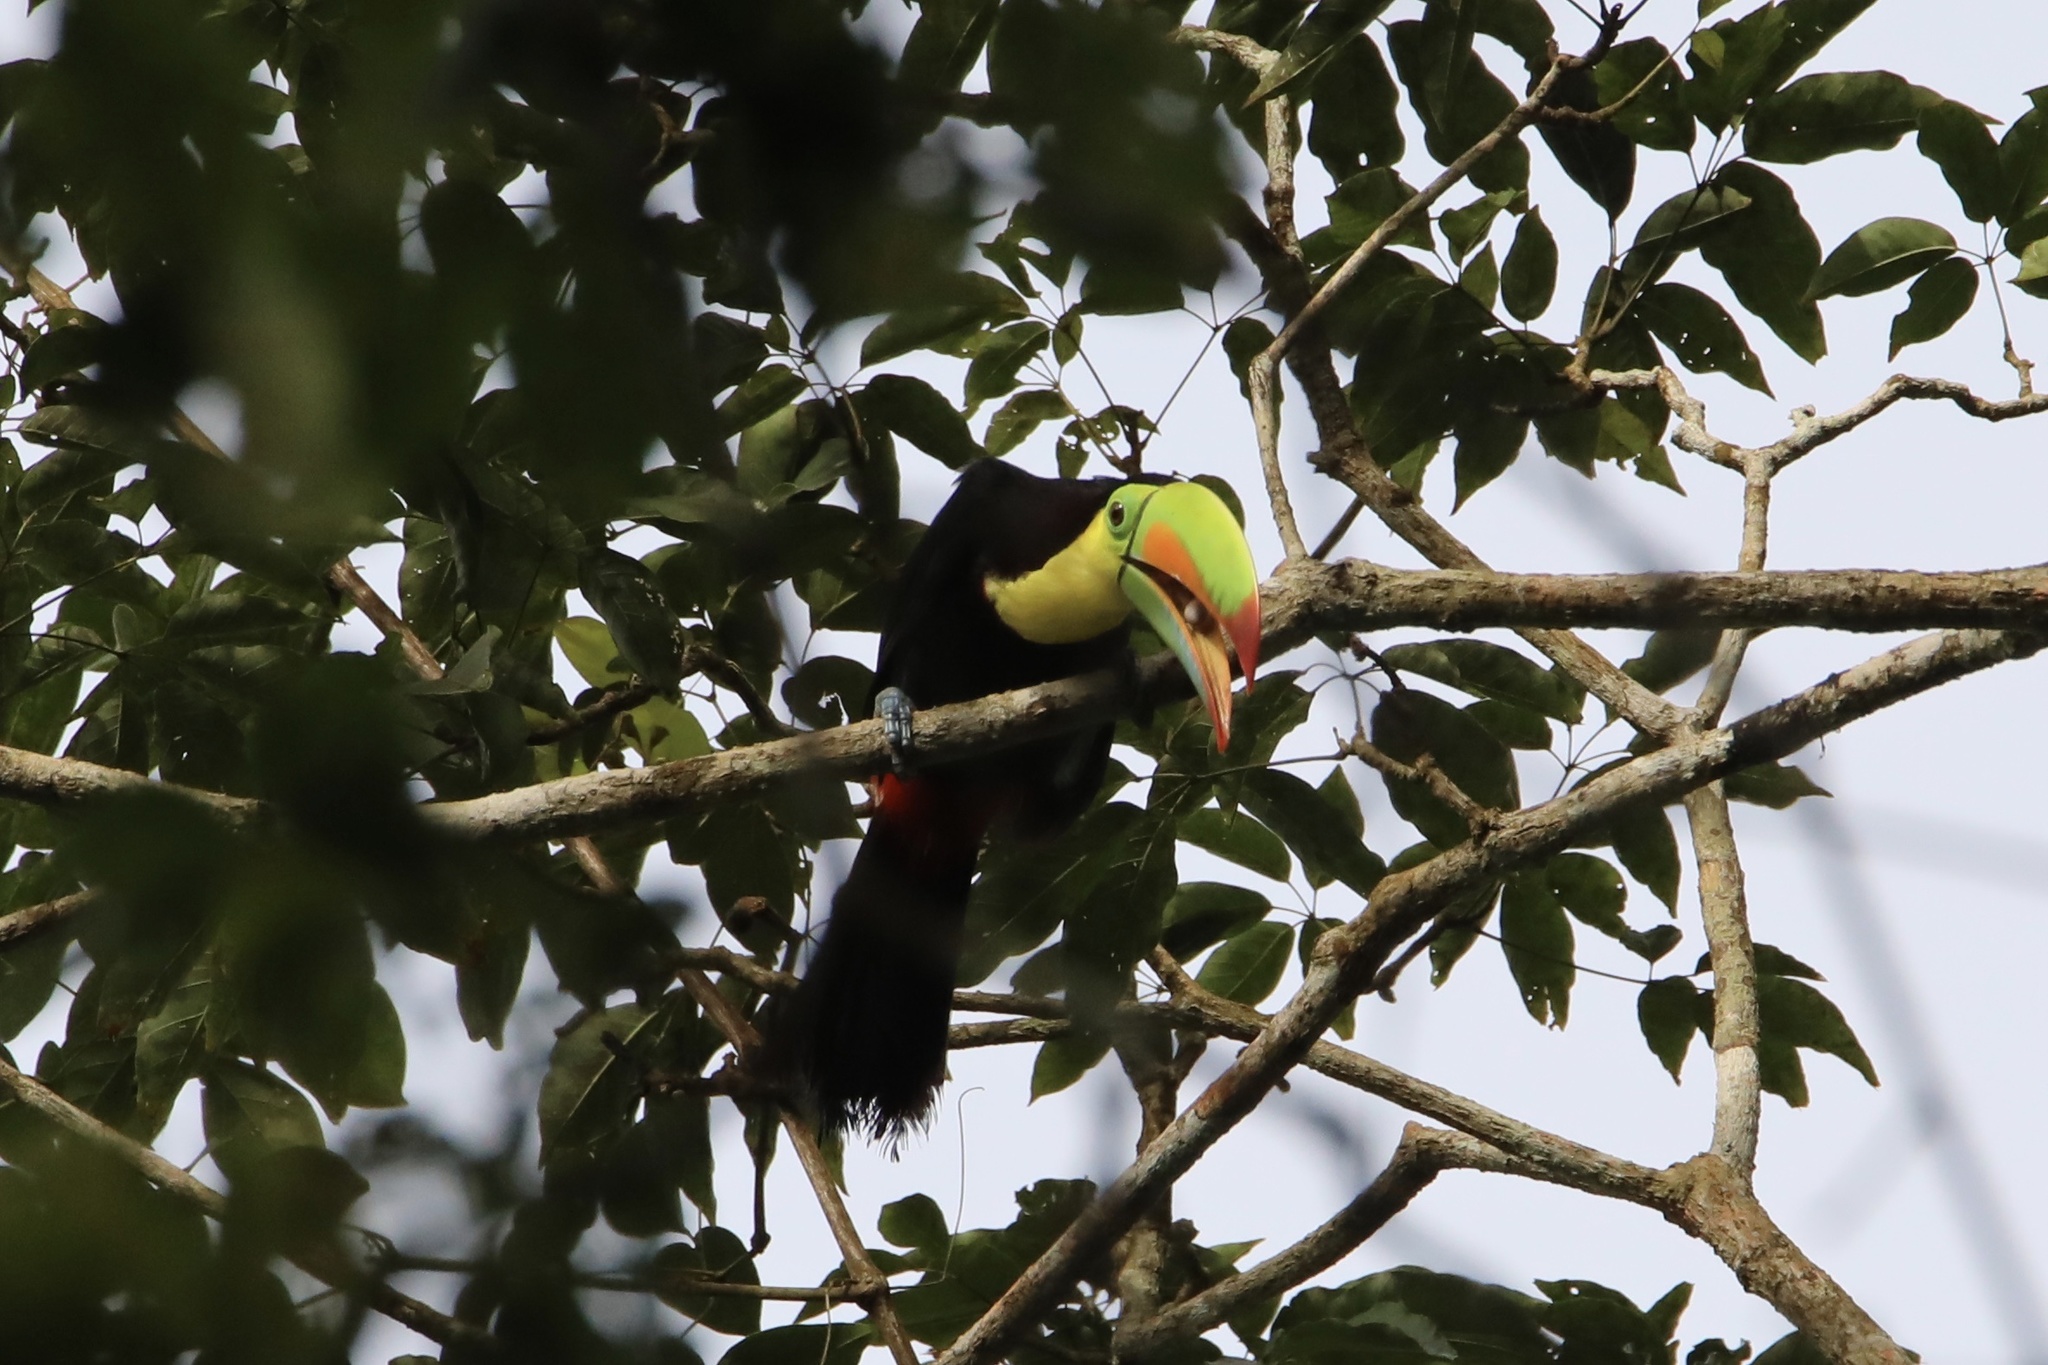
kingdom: Animalia
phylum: Chordata
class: Aves
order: Piciformes
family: Ramphastidae
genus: Ramphastos
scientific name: Ramphastos sulfuratus
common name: Keel-billed toucan
